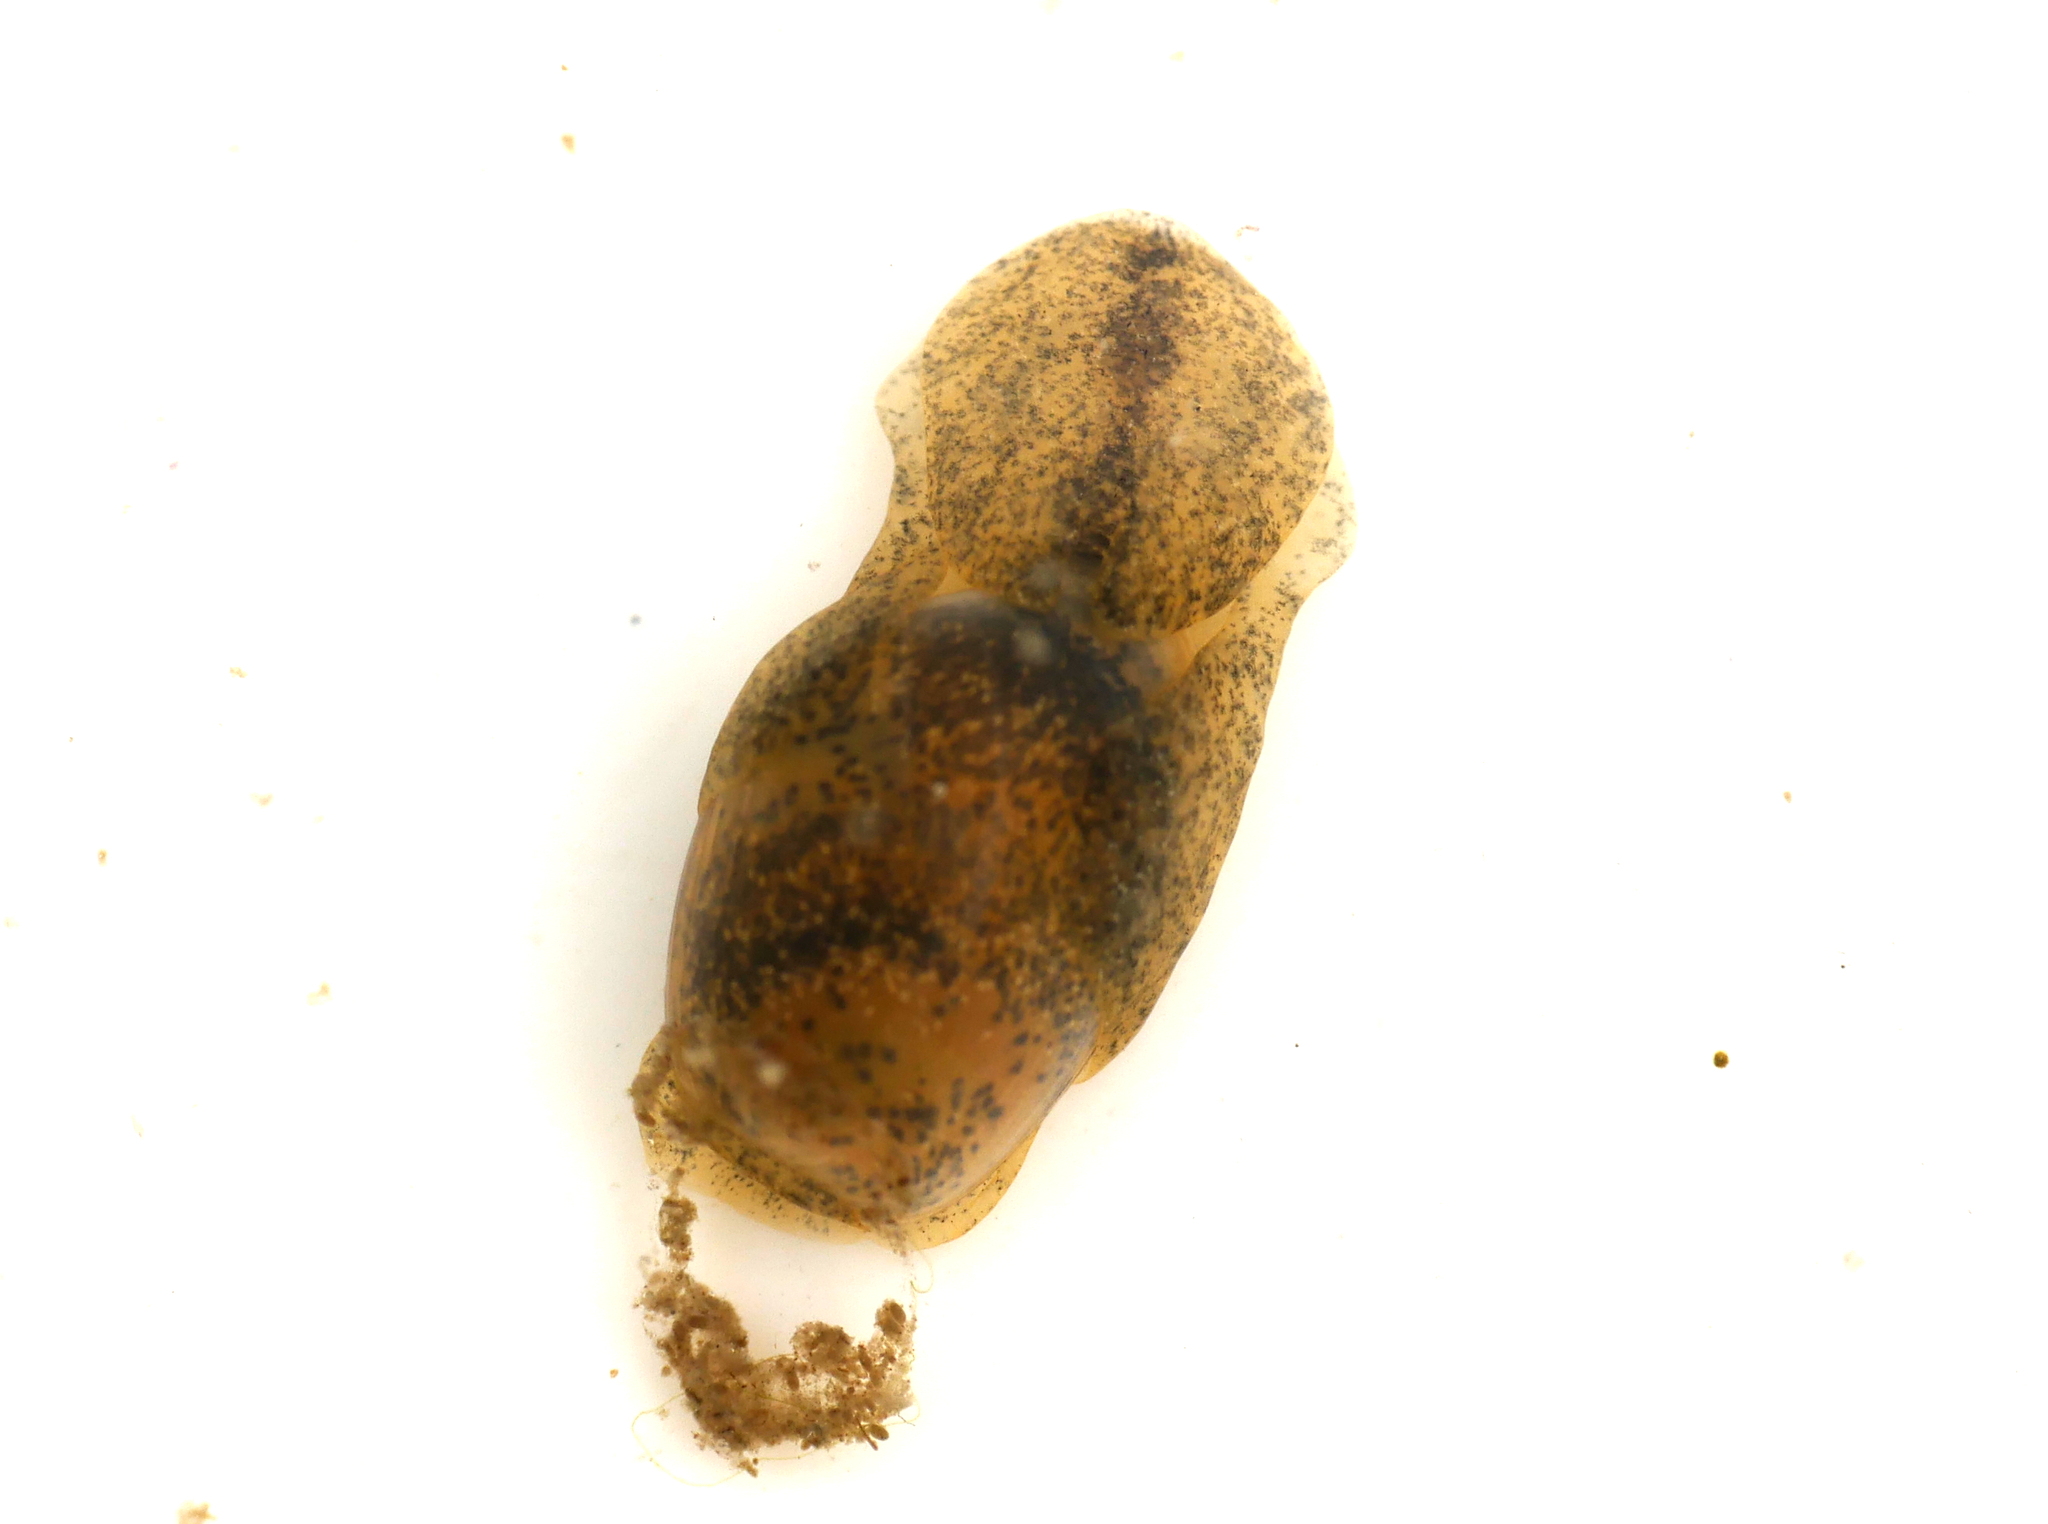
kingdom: Animalia
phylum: Mollusca
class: Gastropoda
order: Cephalaspidea
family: Haminoeidae
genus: Haminella
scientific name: Haminella solitaria
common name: Solitary glassy-bubble
